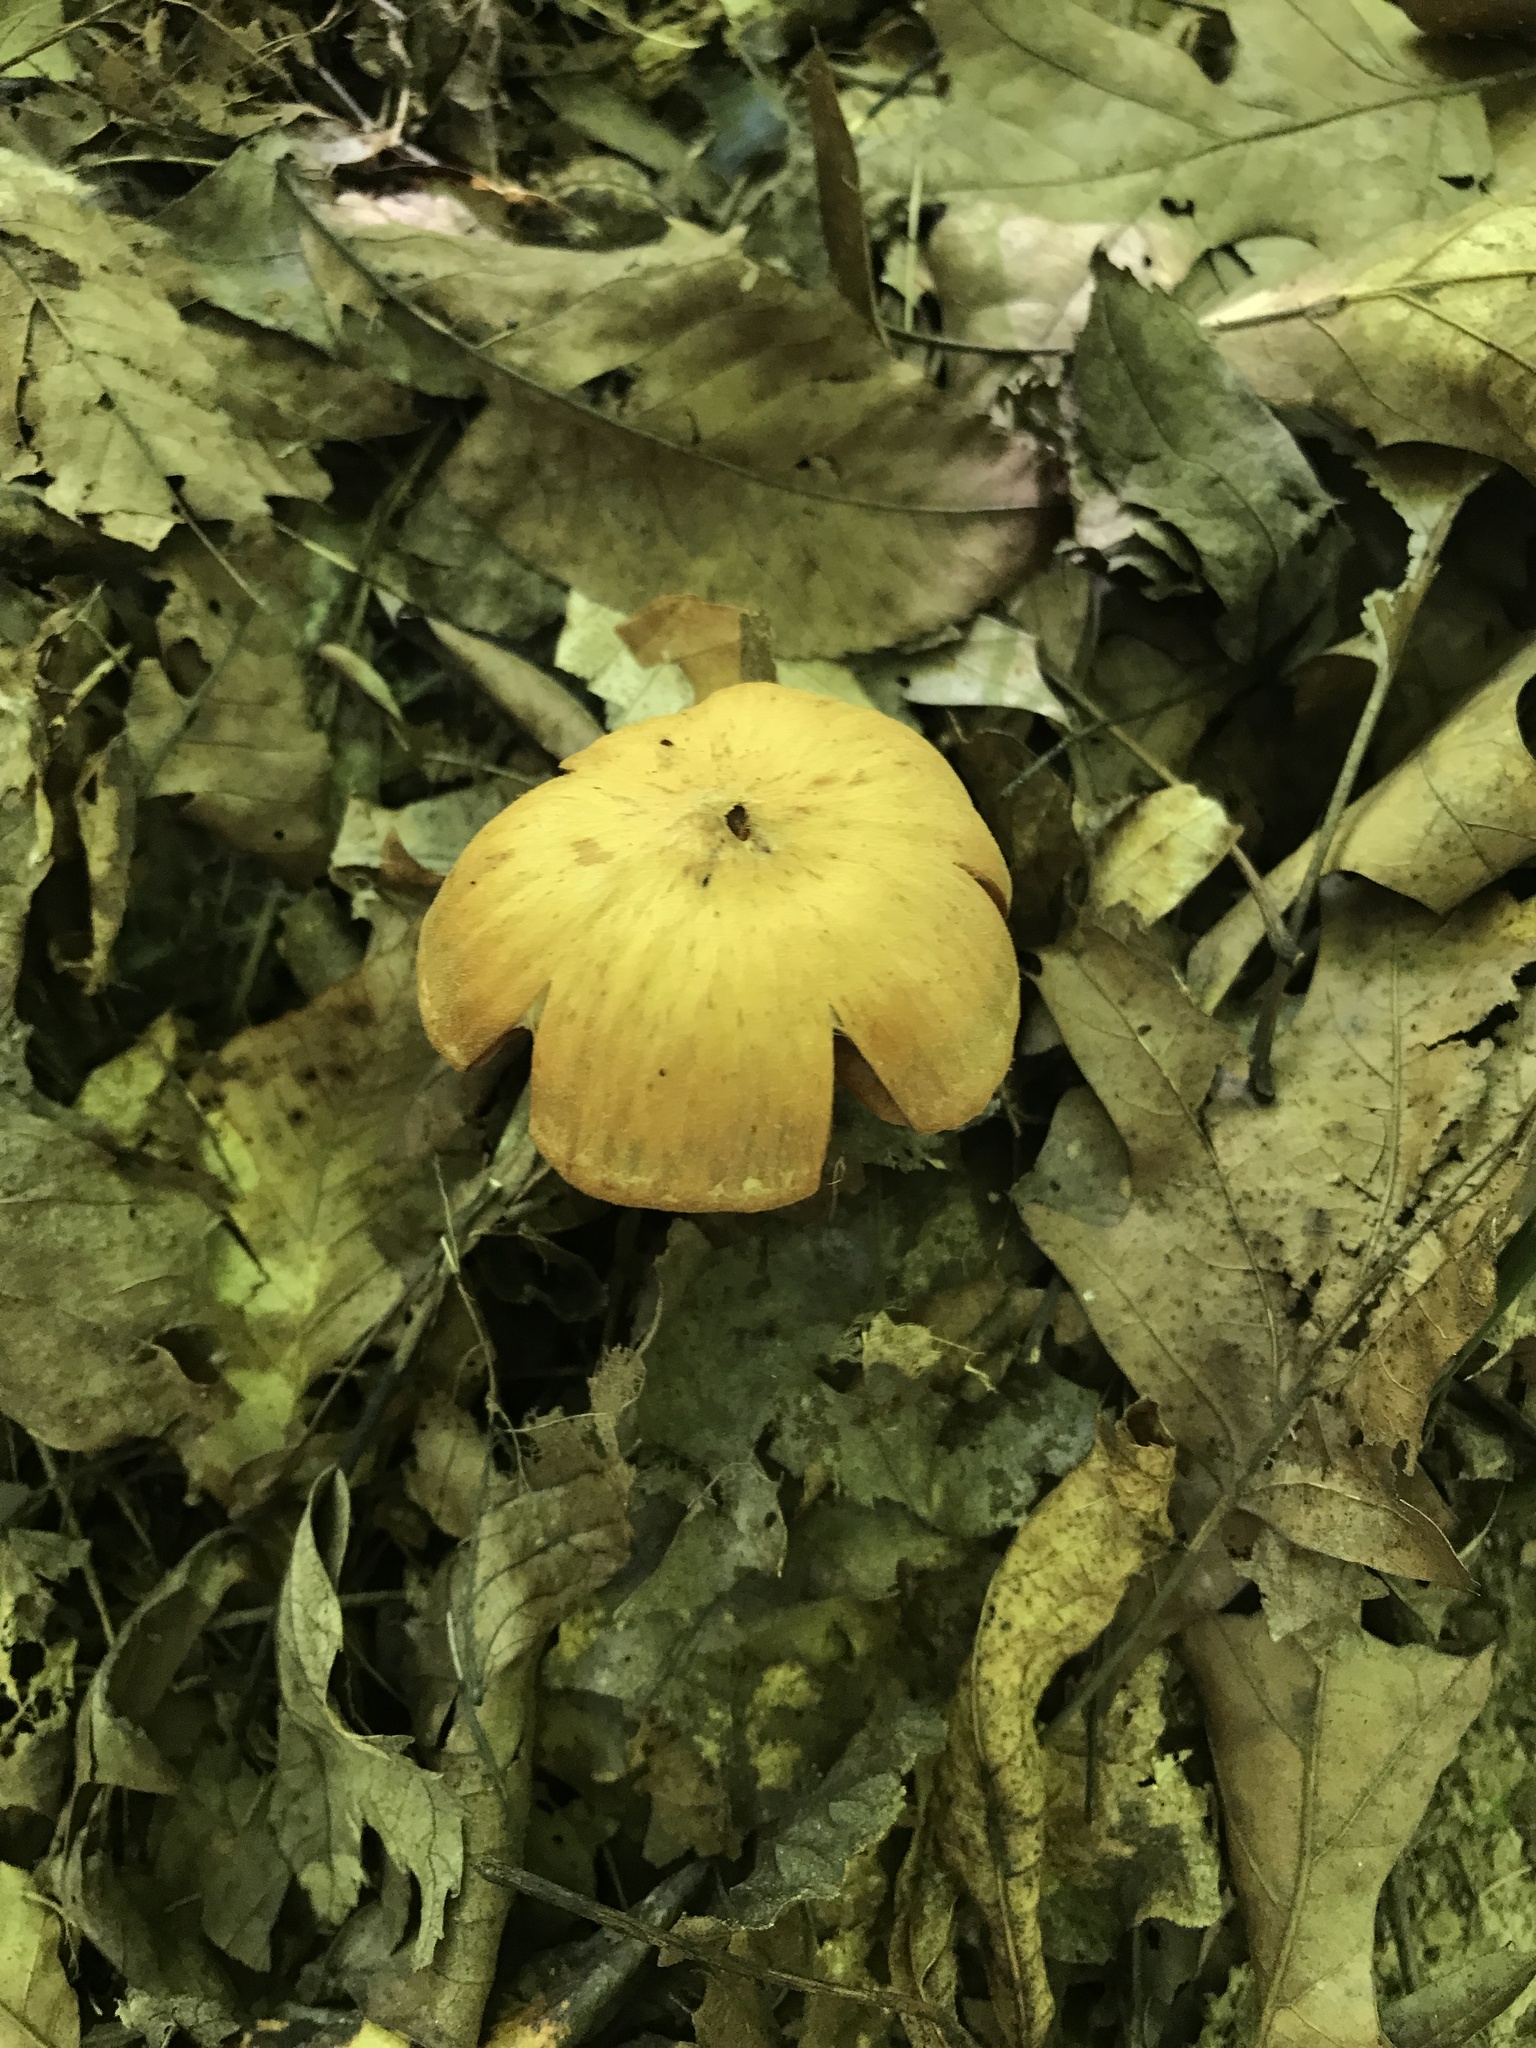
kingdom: Fungi
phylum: Basidiomycota
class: Agaricomycetes
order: Agaricales
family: Cortinariaceae
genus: Cortinarius
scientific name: Cortinarius
